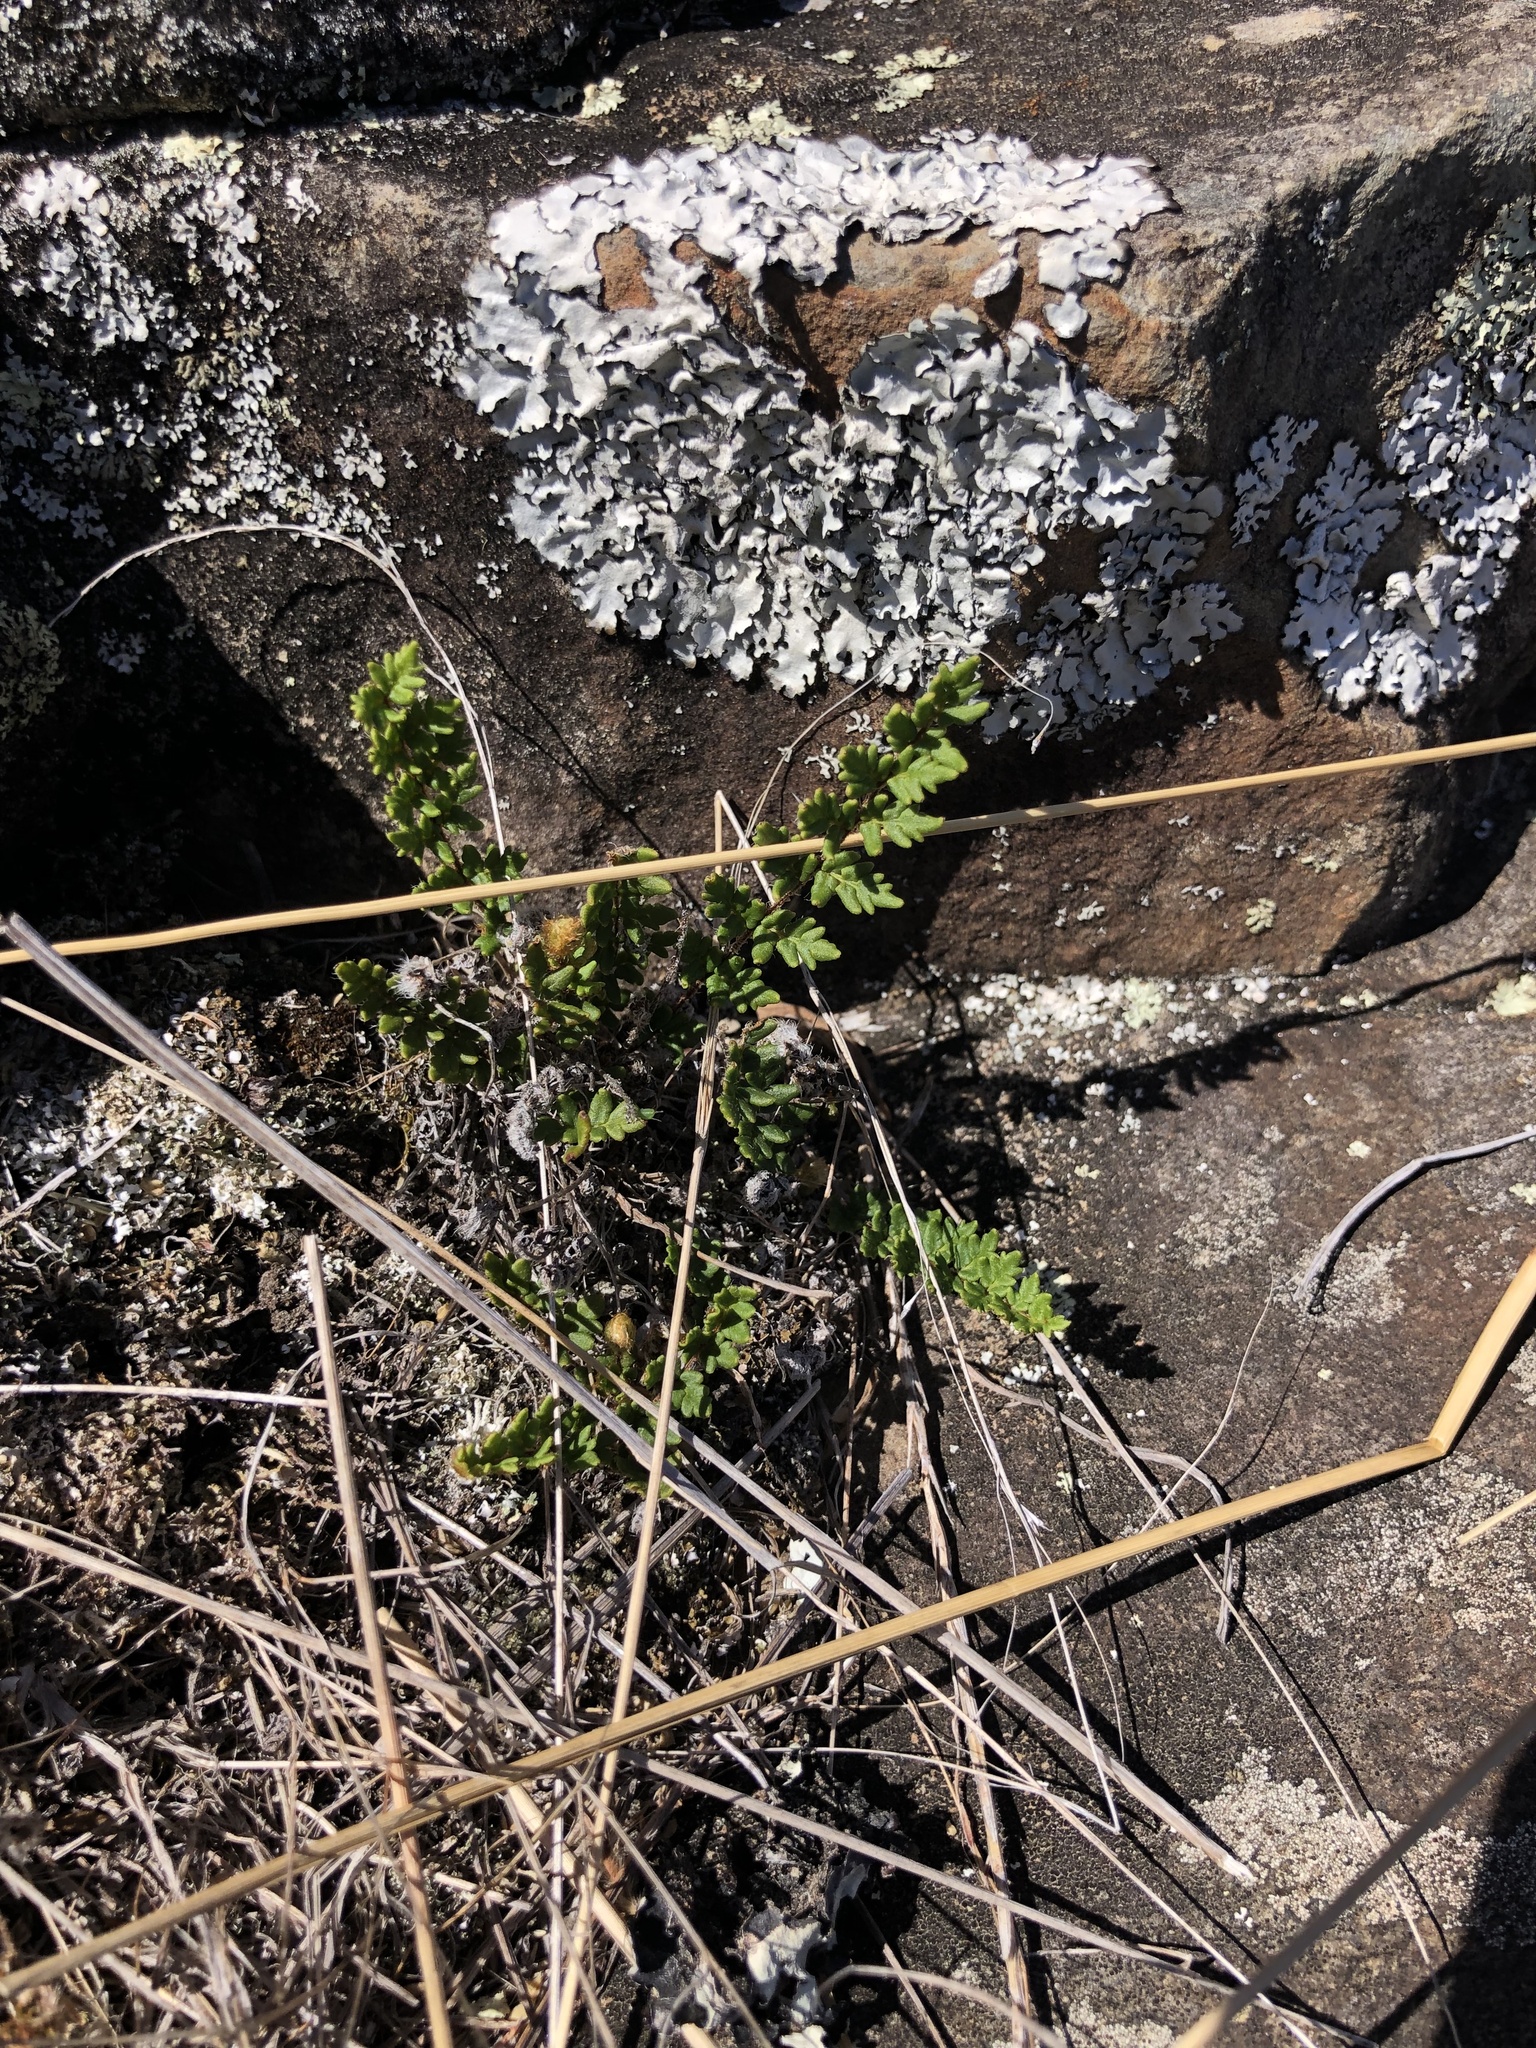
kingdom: Plantae
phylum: Tracheophyta
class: Polypodiopsida
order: Polypodiales
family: Pteridaceae
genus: Cheilanthes
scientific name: Cheilanthes distans
